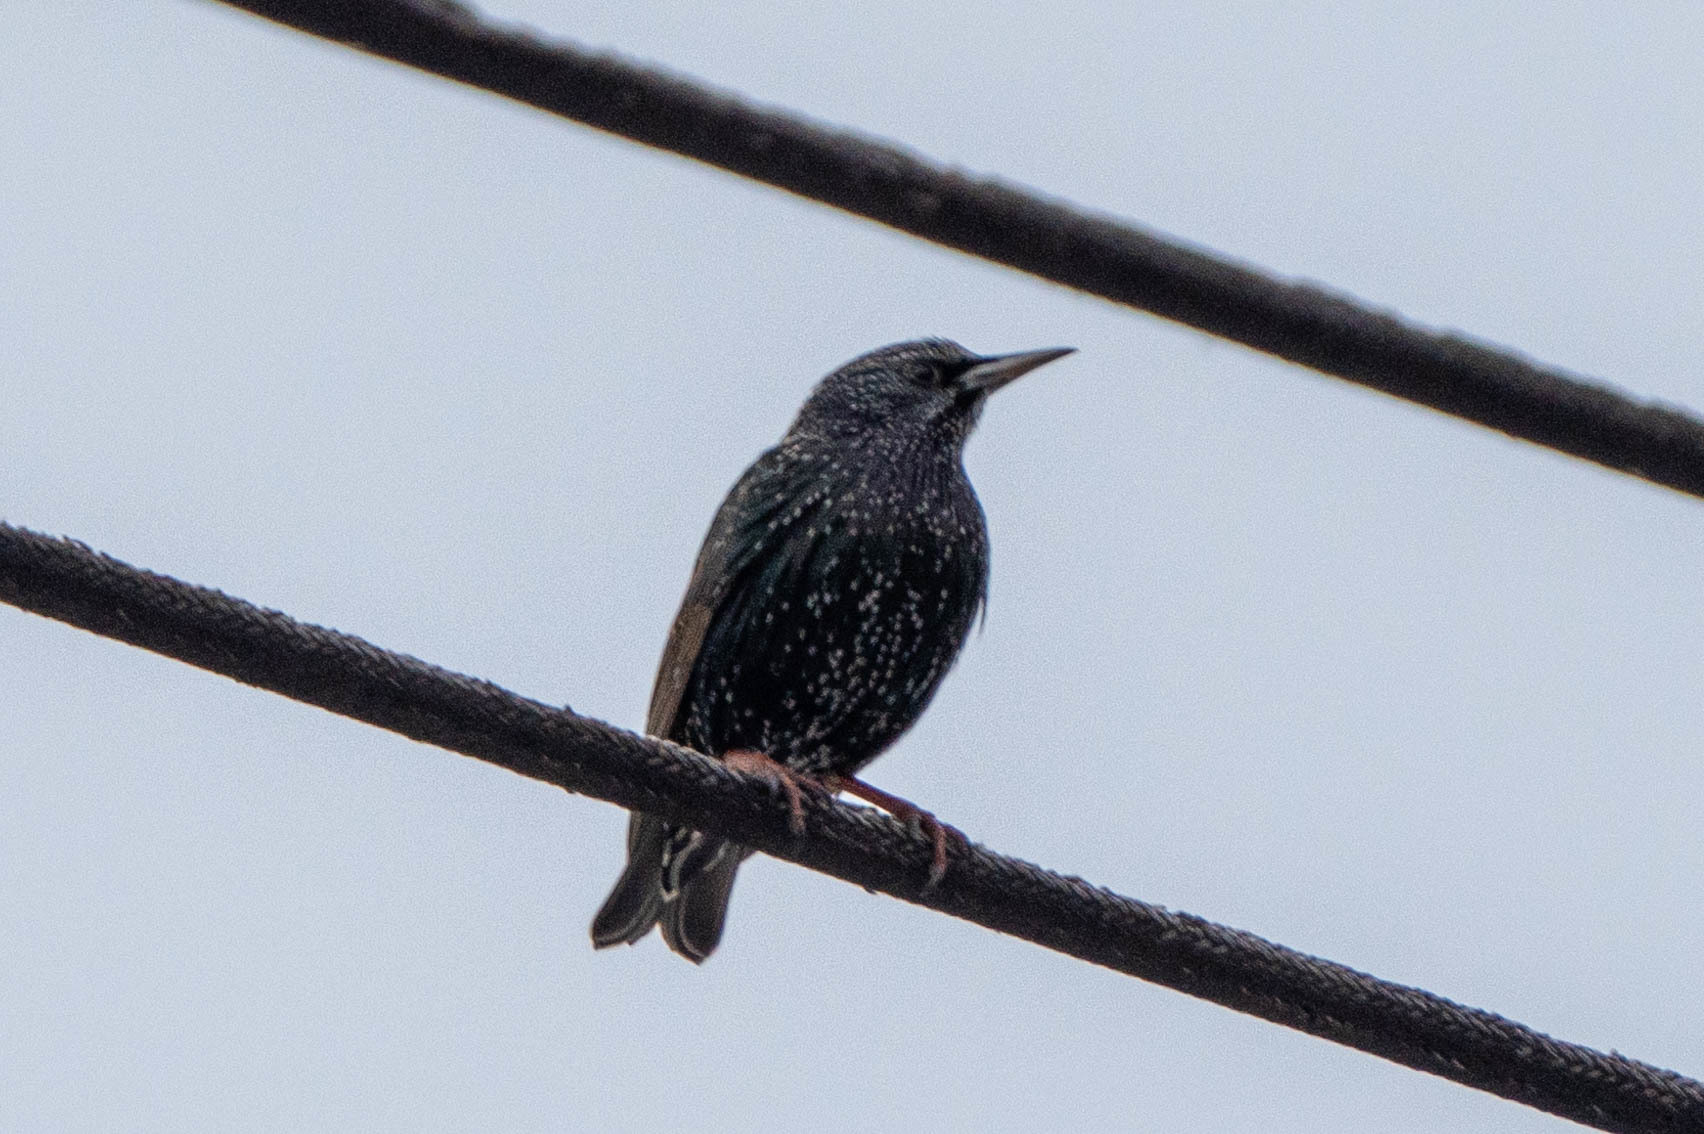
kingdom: Animalia
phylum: Chordata
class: Aves
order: Passeriformes
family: Sturnidae
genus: Sturnus
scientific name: Sturnus vulgaris
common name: Common starling
